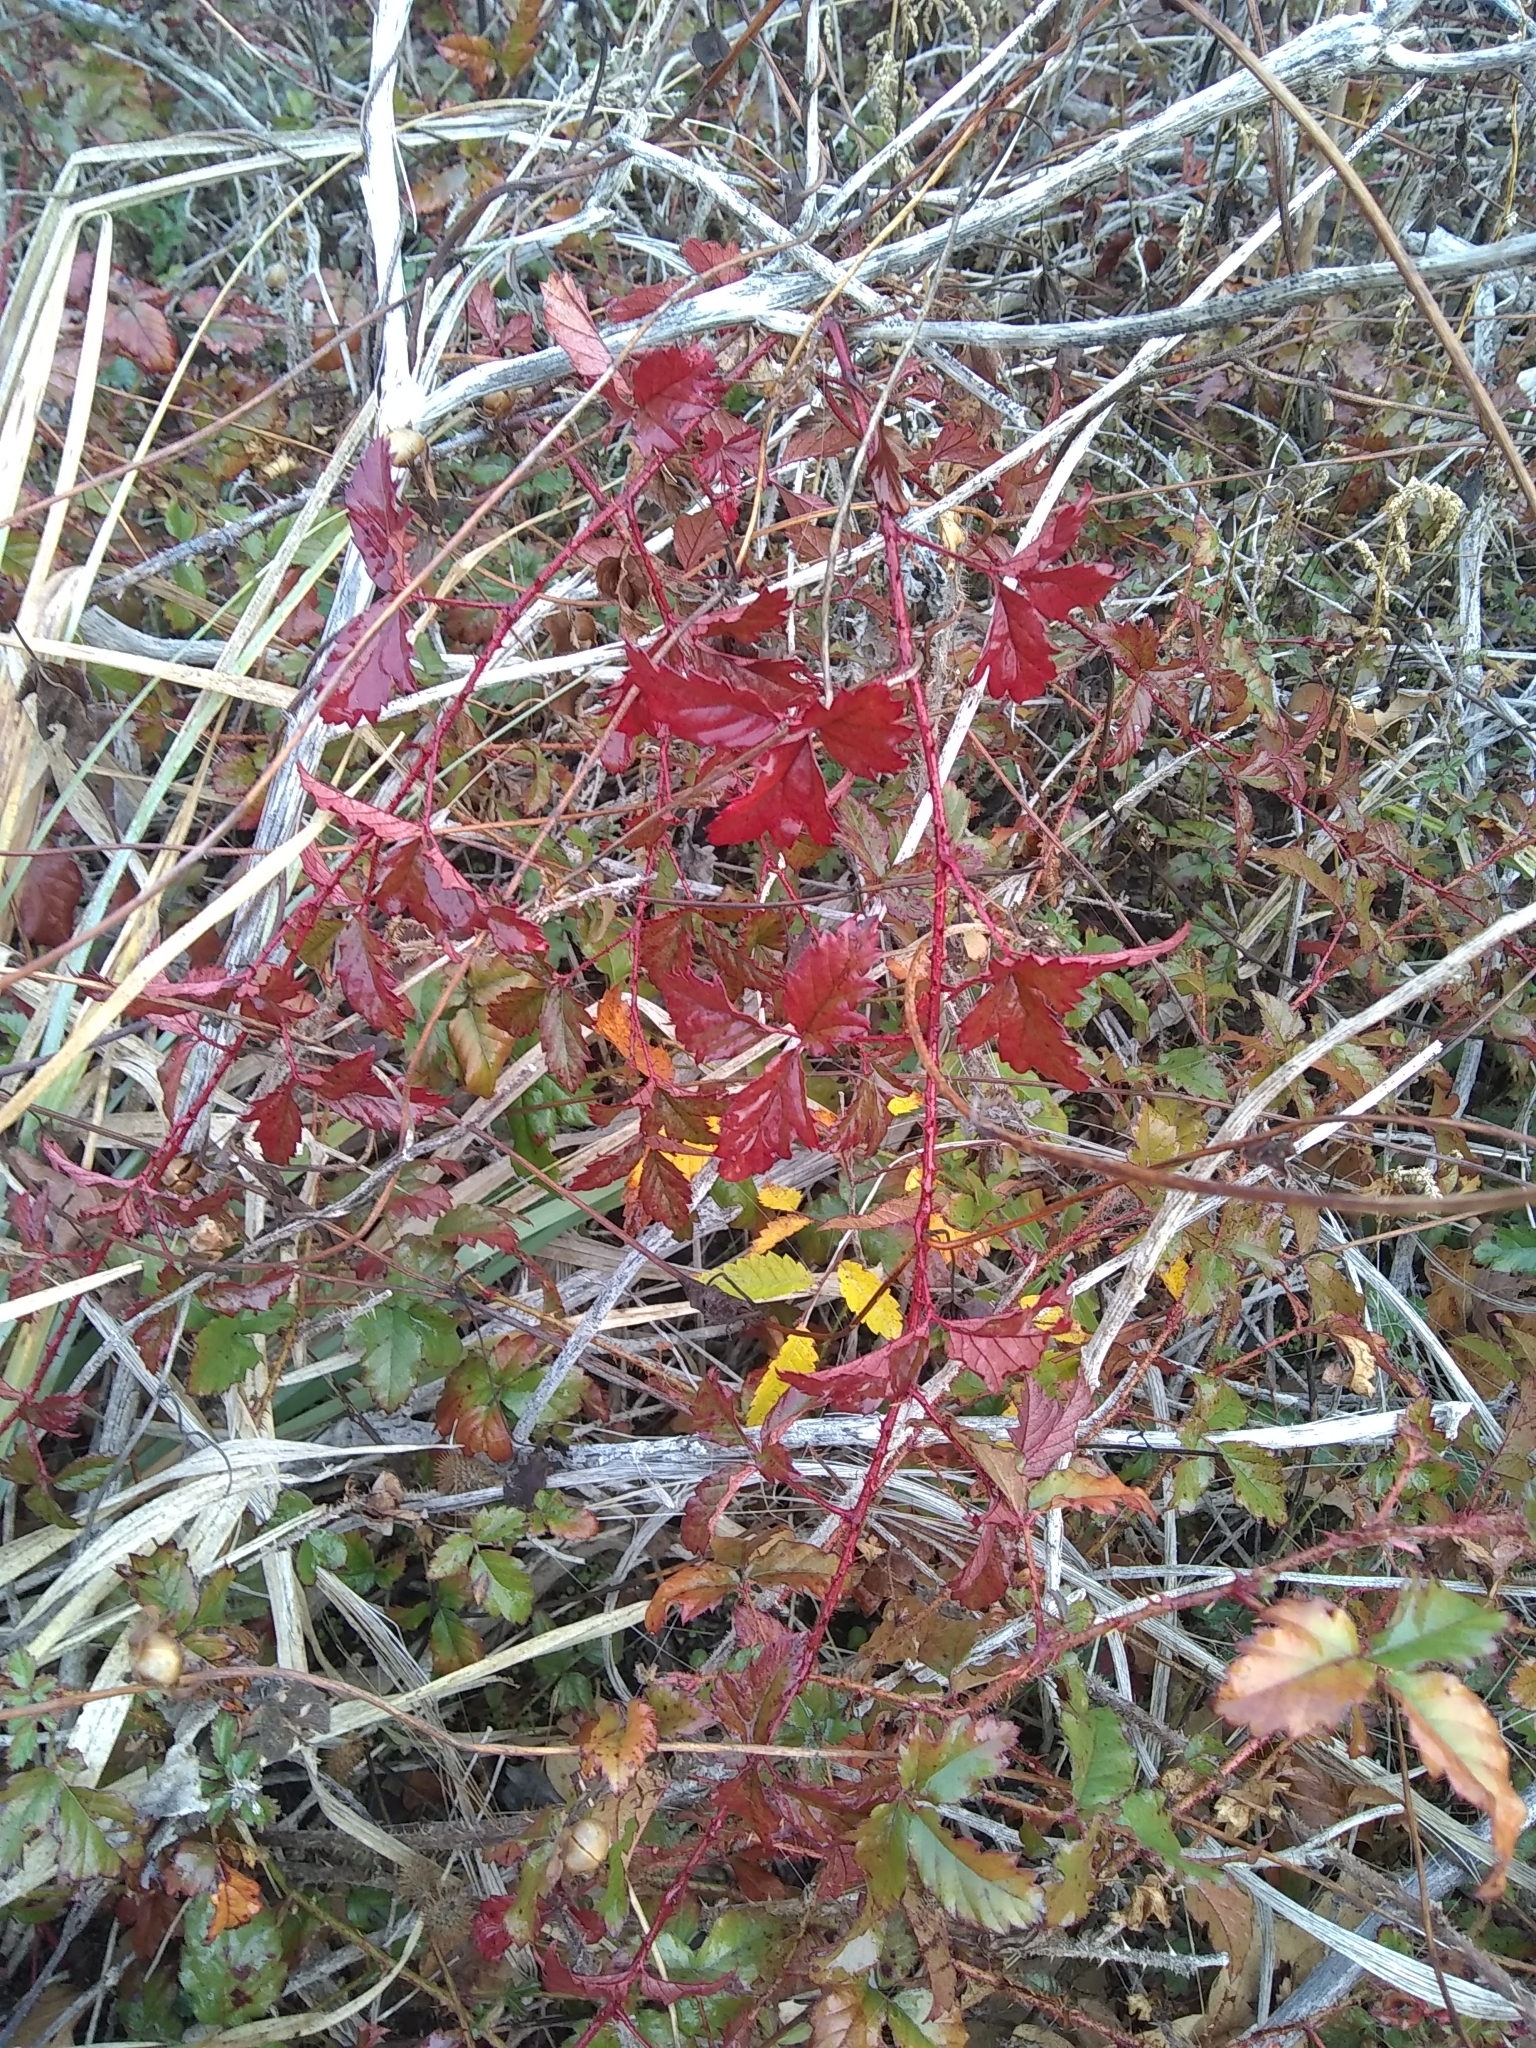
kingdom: Plantae
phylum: Tracheophyta
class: Magnoliopsida
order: Rosales
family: Rosaceae
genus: Rubus
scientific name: Rubus trivialis
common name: Southern dewberry
